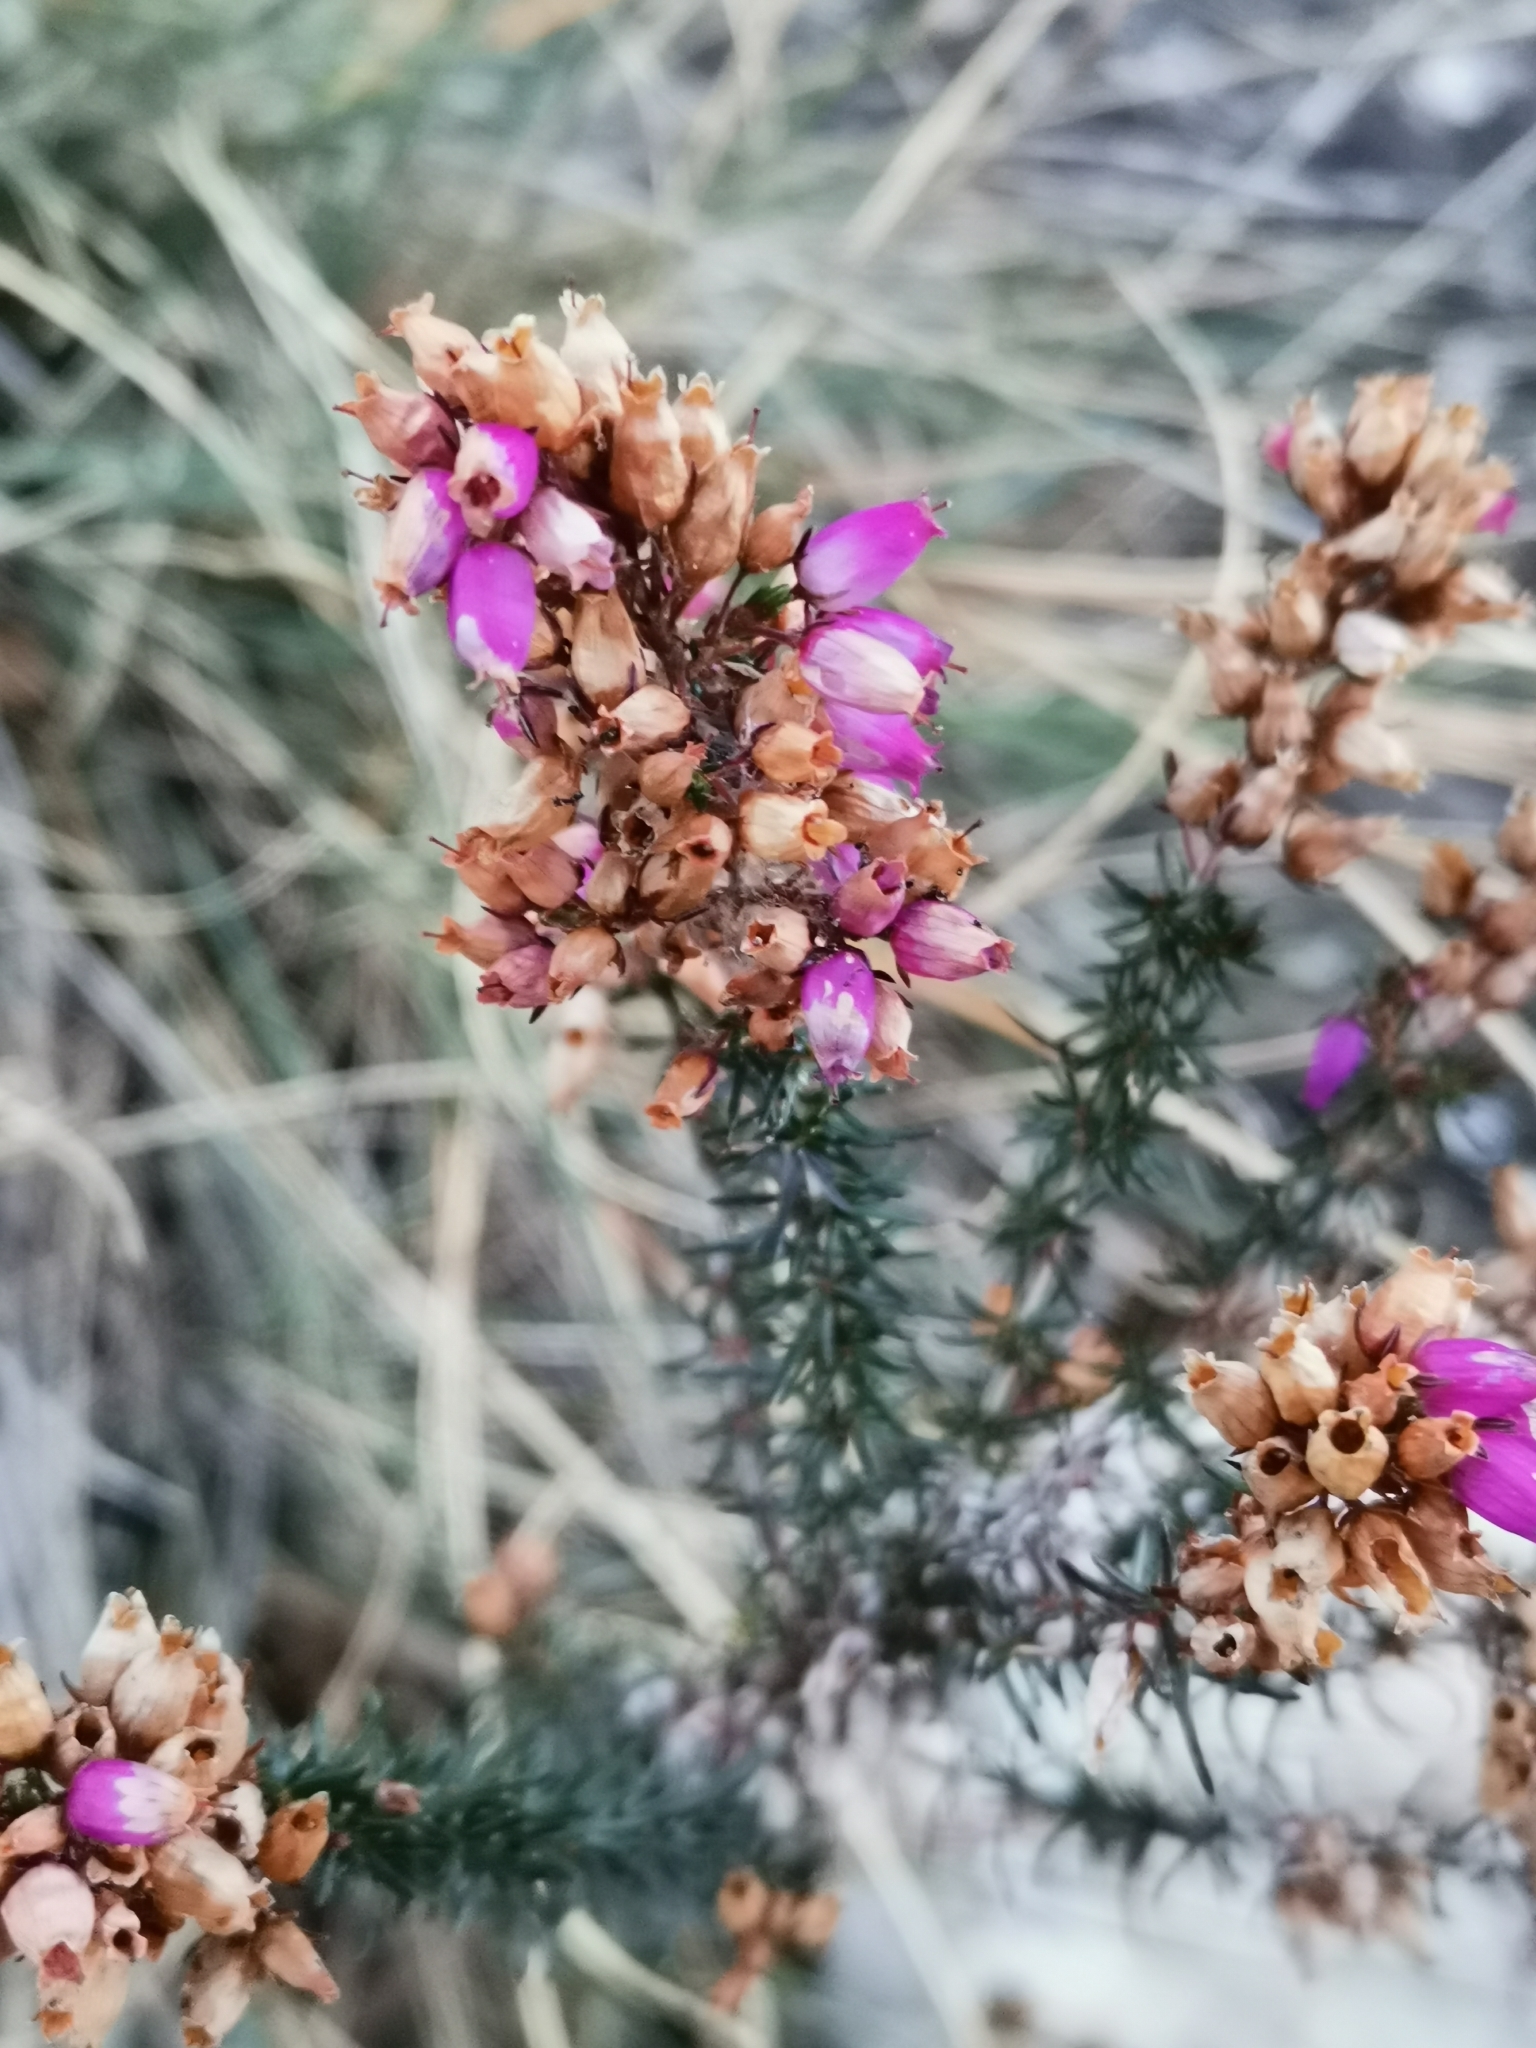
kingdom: Plantae
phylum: Tracheophyta
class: Magnoliopsida
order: Ericales
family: Ericaceae
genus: Erica
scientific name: Erica cinerea
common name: Bell heather
